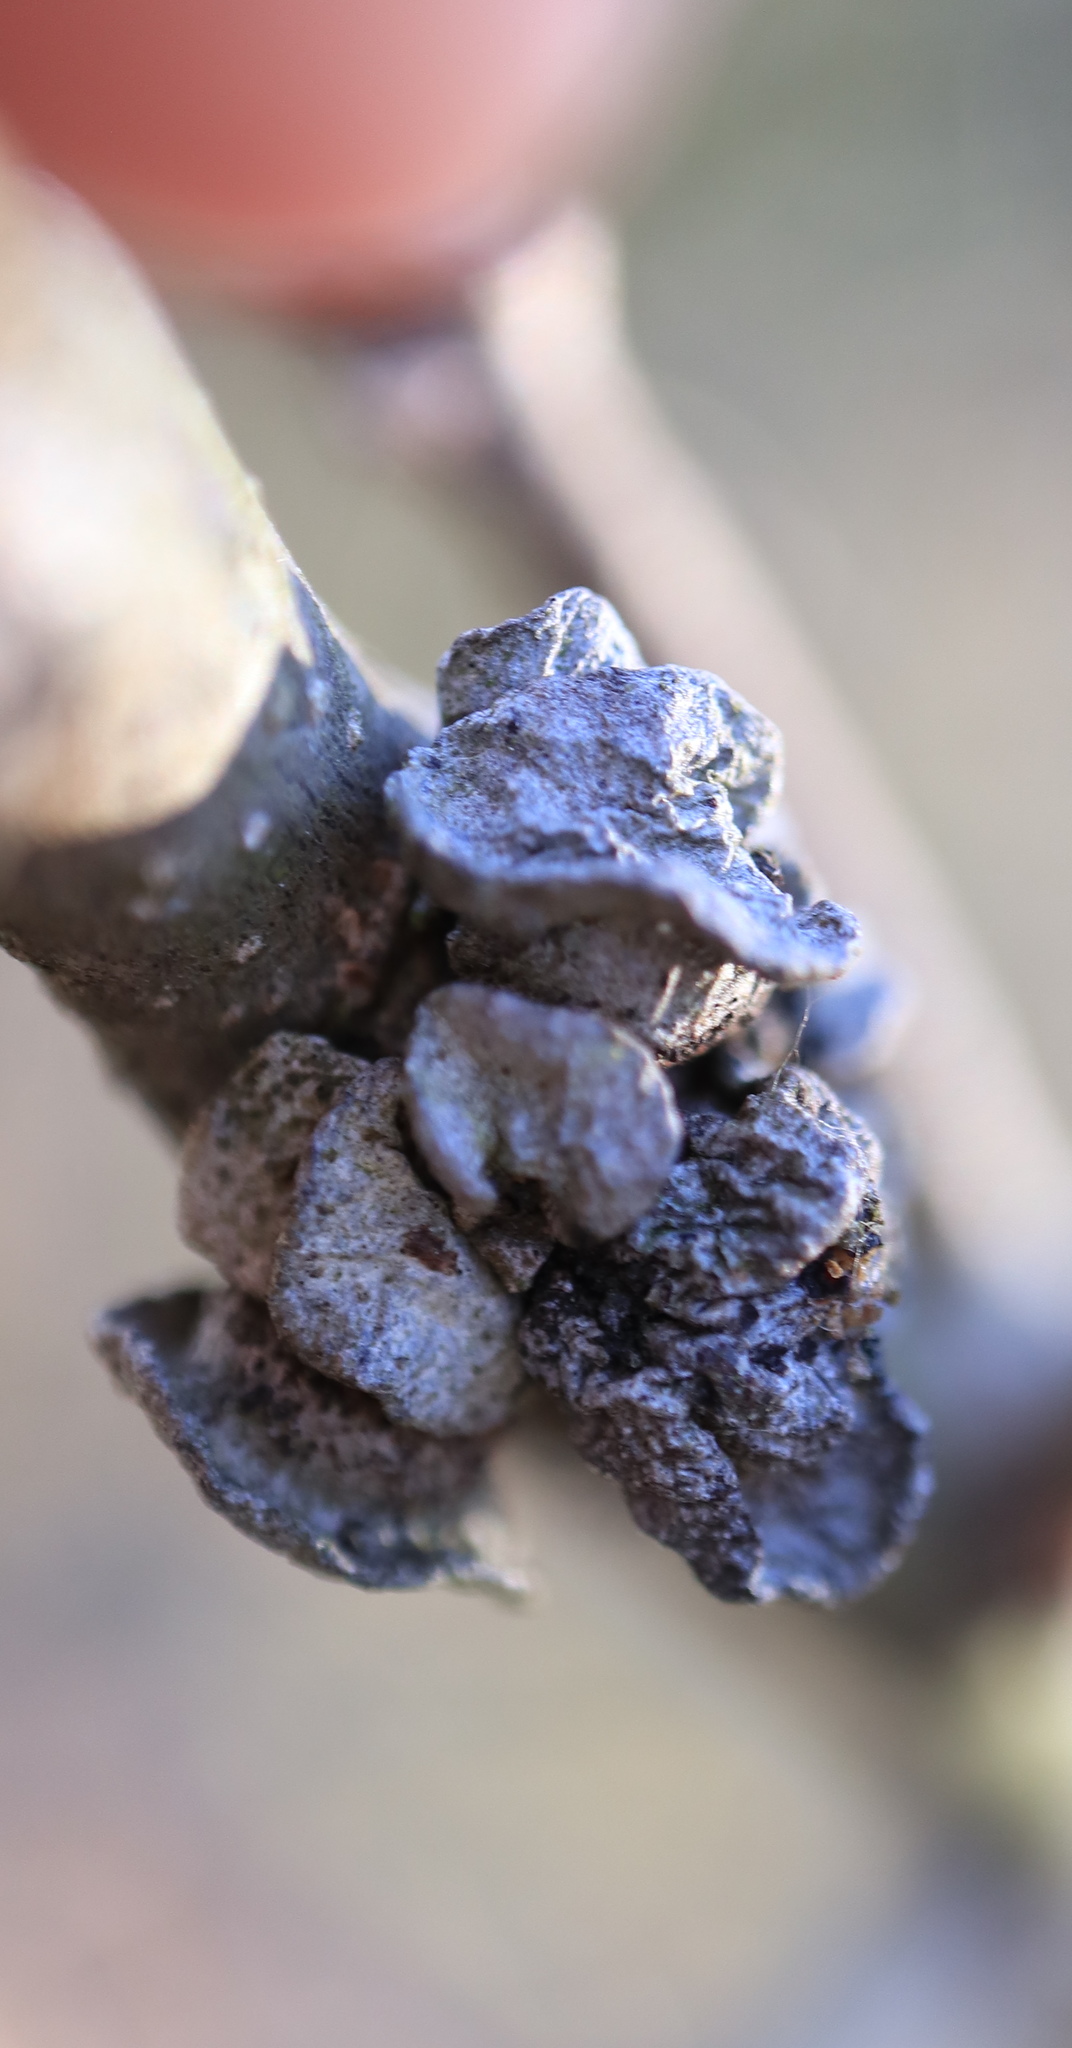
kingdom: Animalia
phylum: Arthropoda
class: Insecta
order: Hymenoptera
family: Cynipidae
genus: Andricus
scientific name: Andricus
